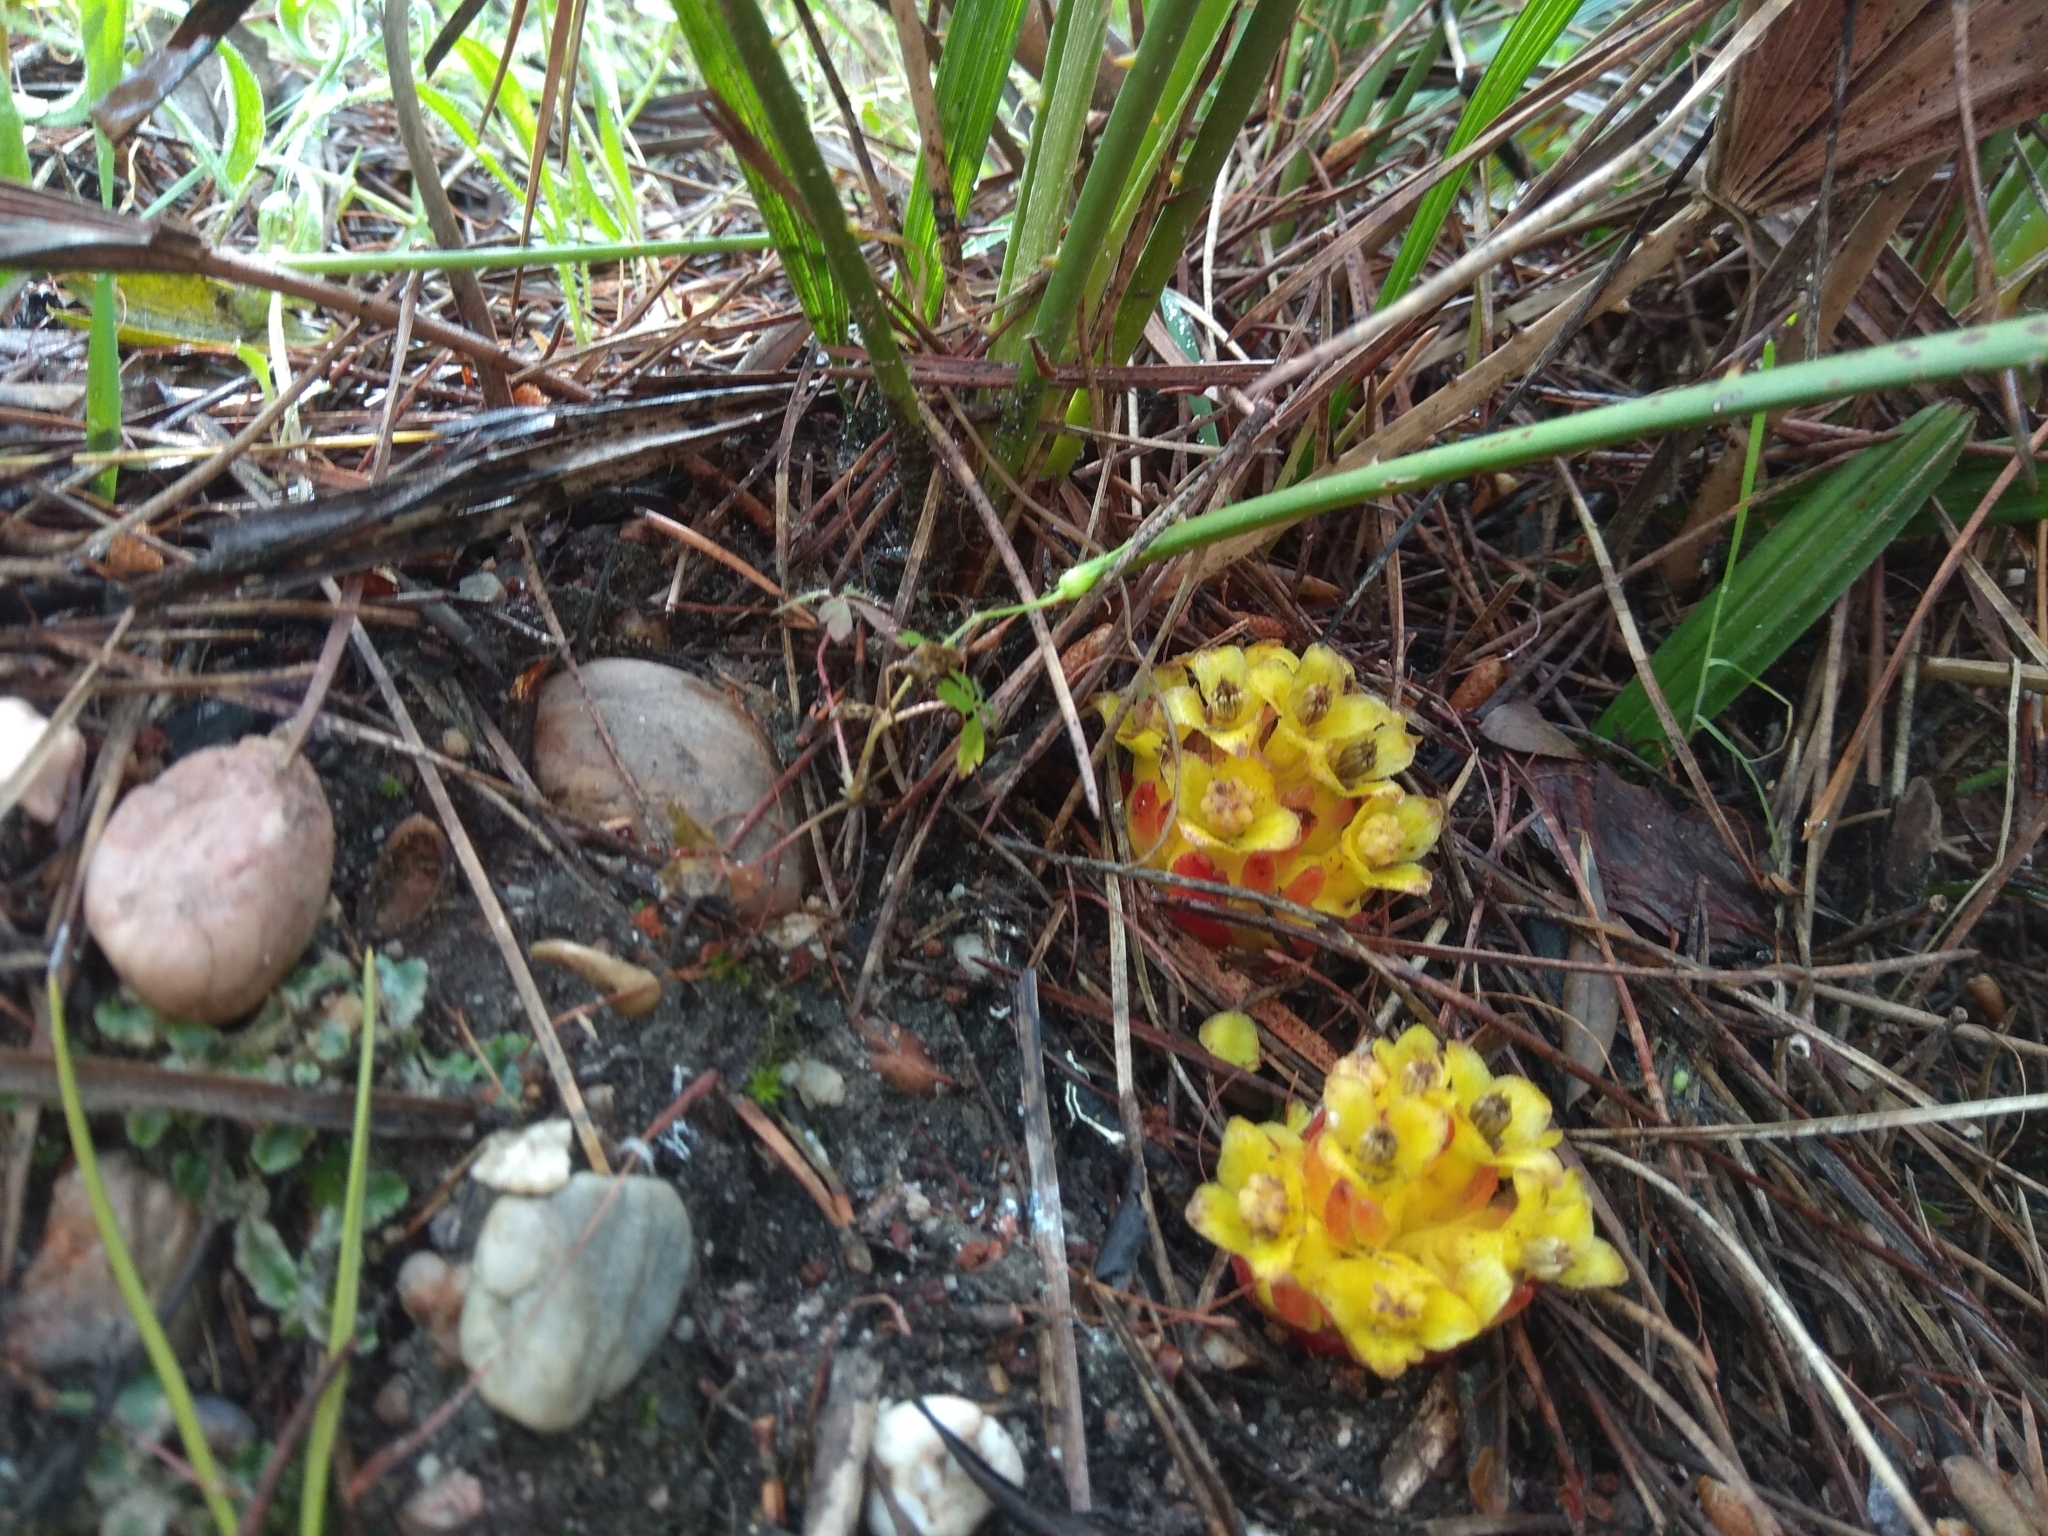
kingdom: Plantae
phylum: Tracheophyta
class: Magnoliopsida
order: Malvales
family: Cytinaceae
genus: Cytinus
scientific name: Cytinus hypocistis
